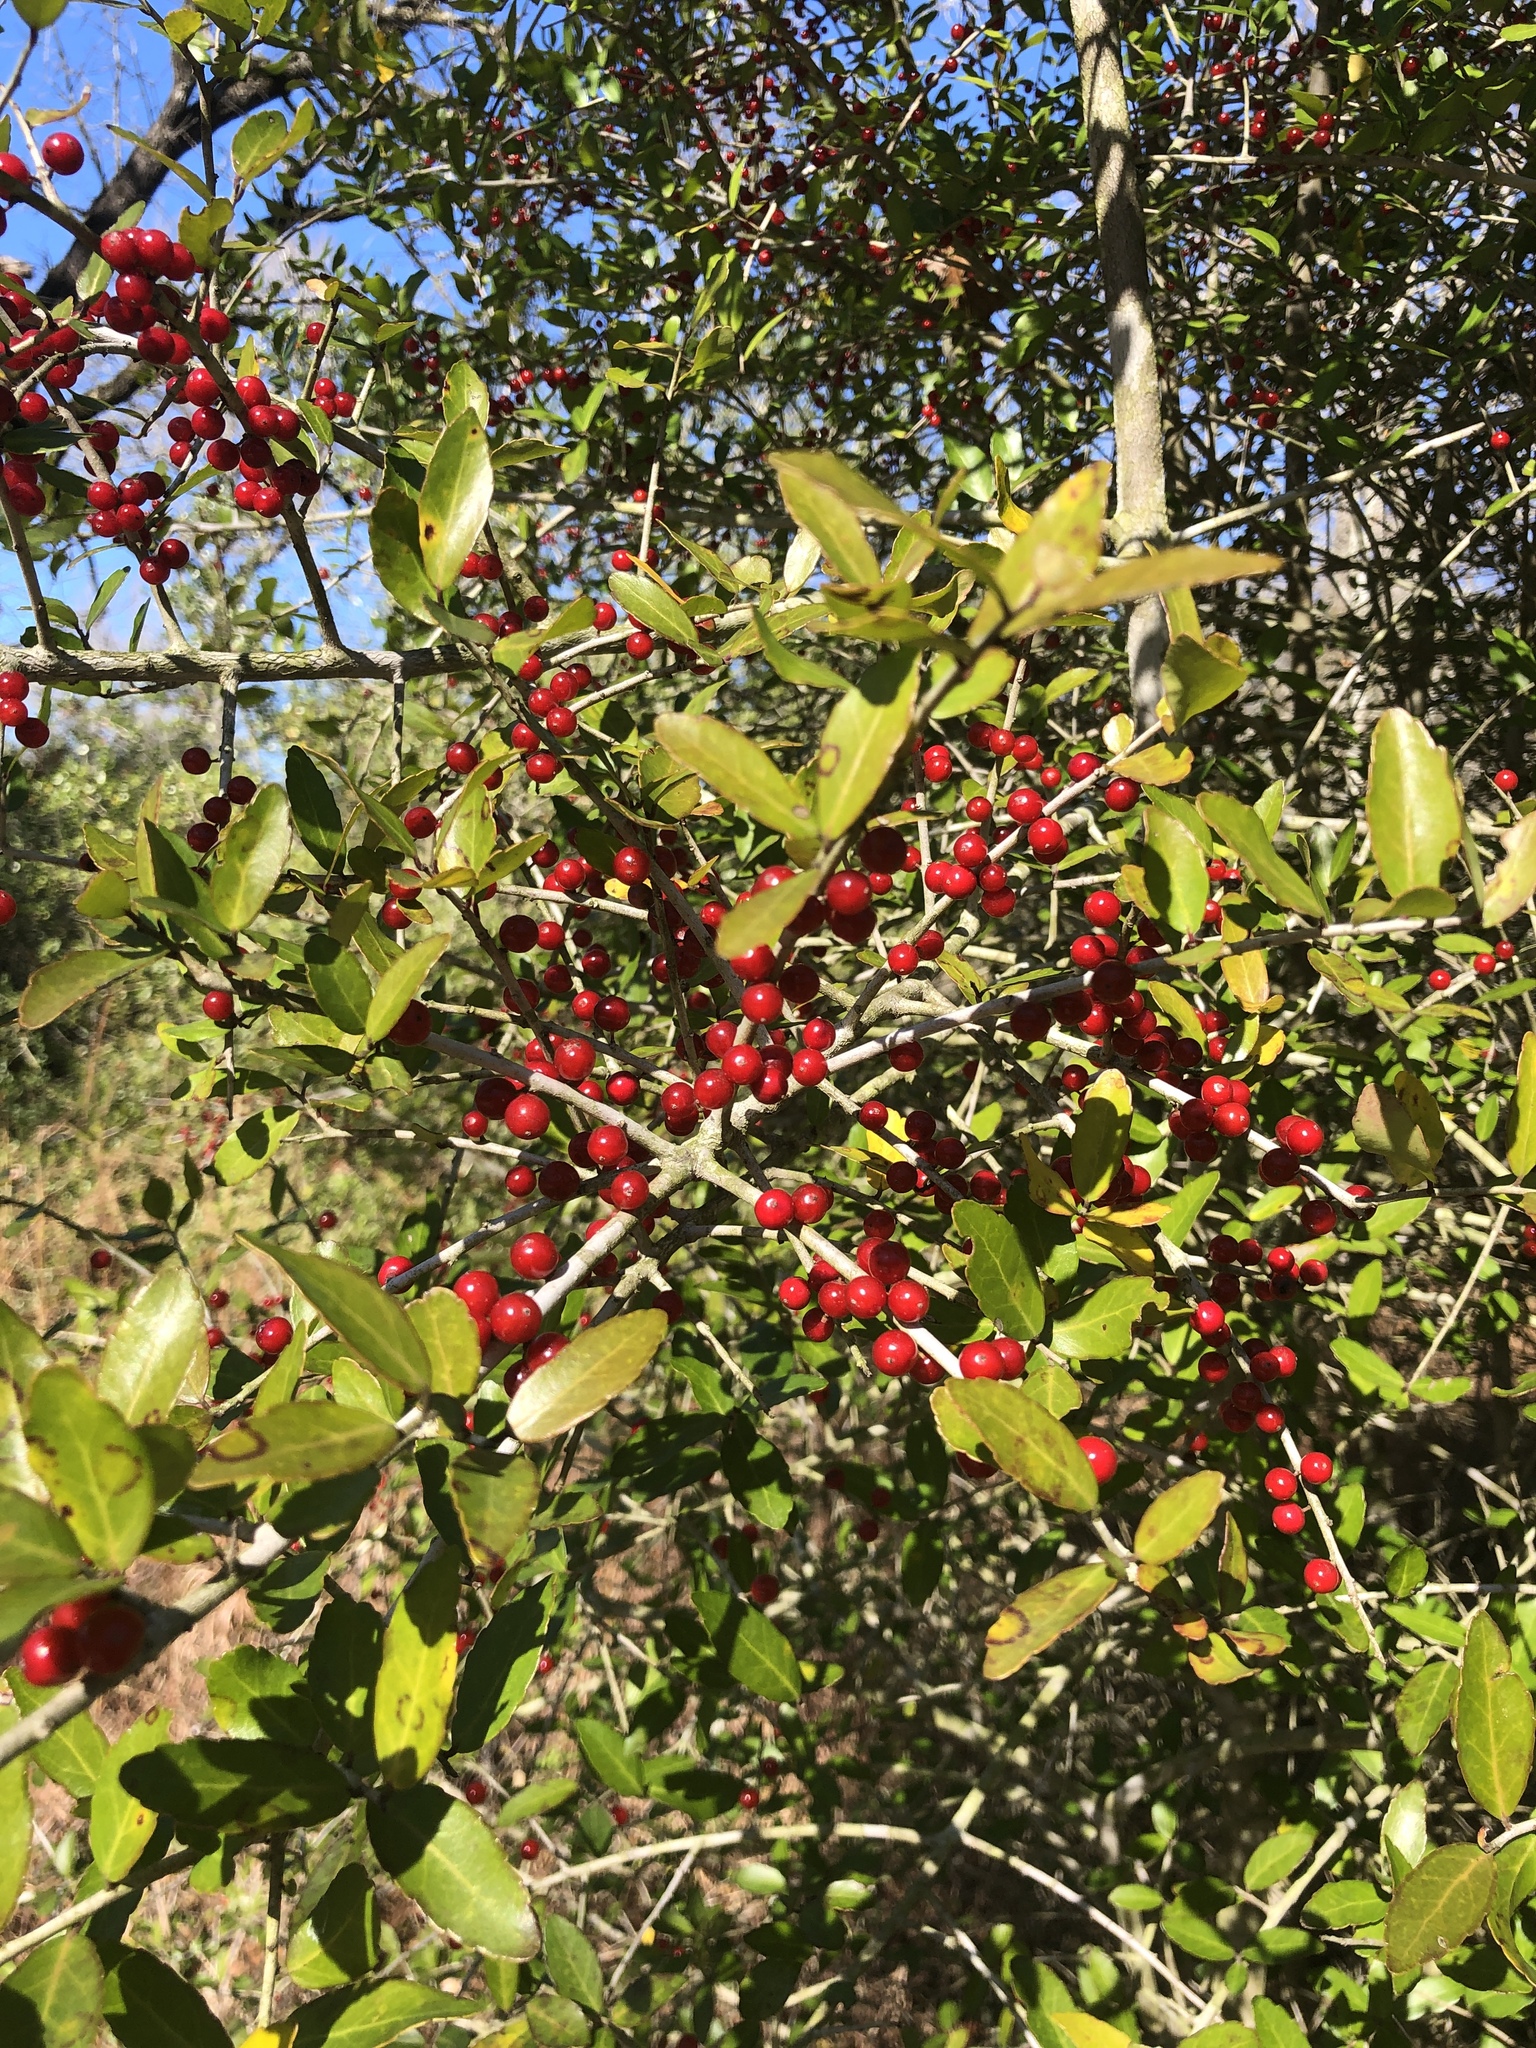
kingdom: Plantae
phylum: Tracheophyta
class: Magnoliopsida
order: Aquifoliales
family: Aquifoliaceae
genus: Ilex
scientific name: Ilex vomitoria
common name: Yaupon holly
